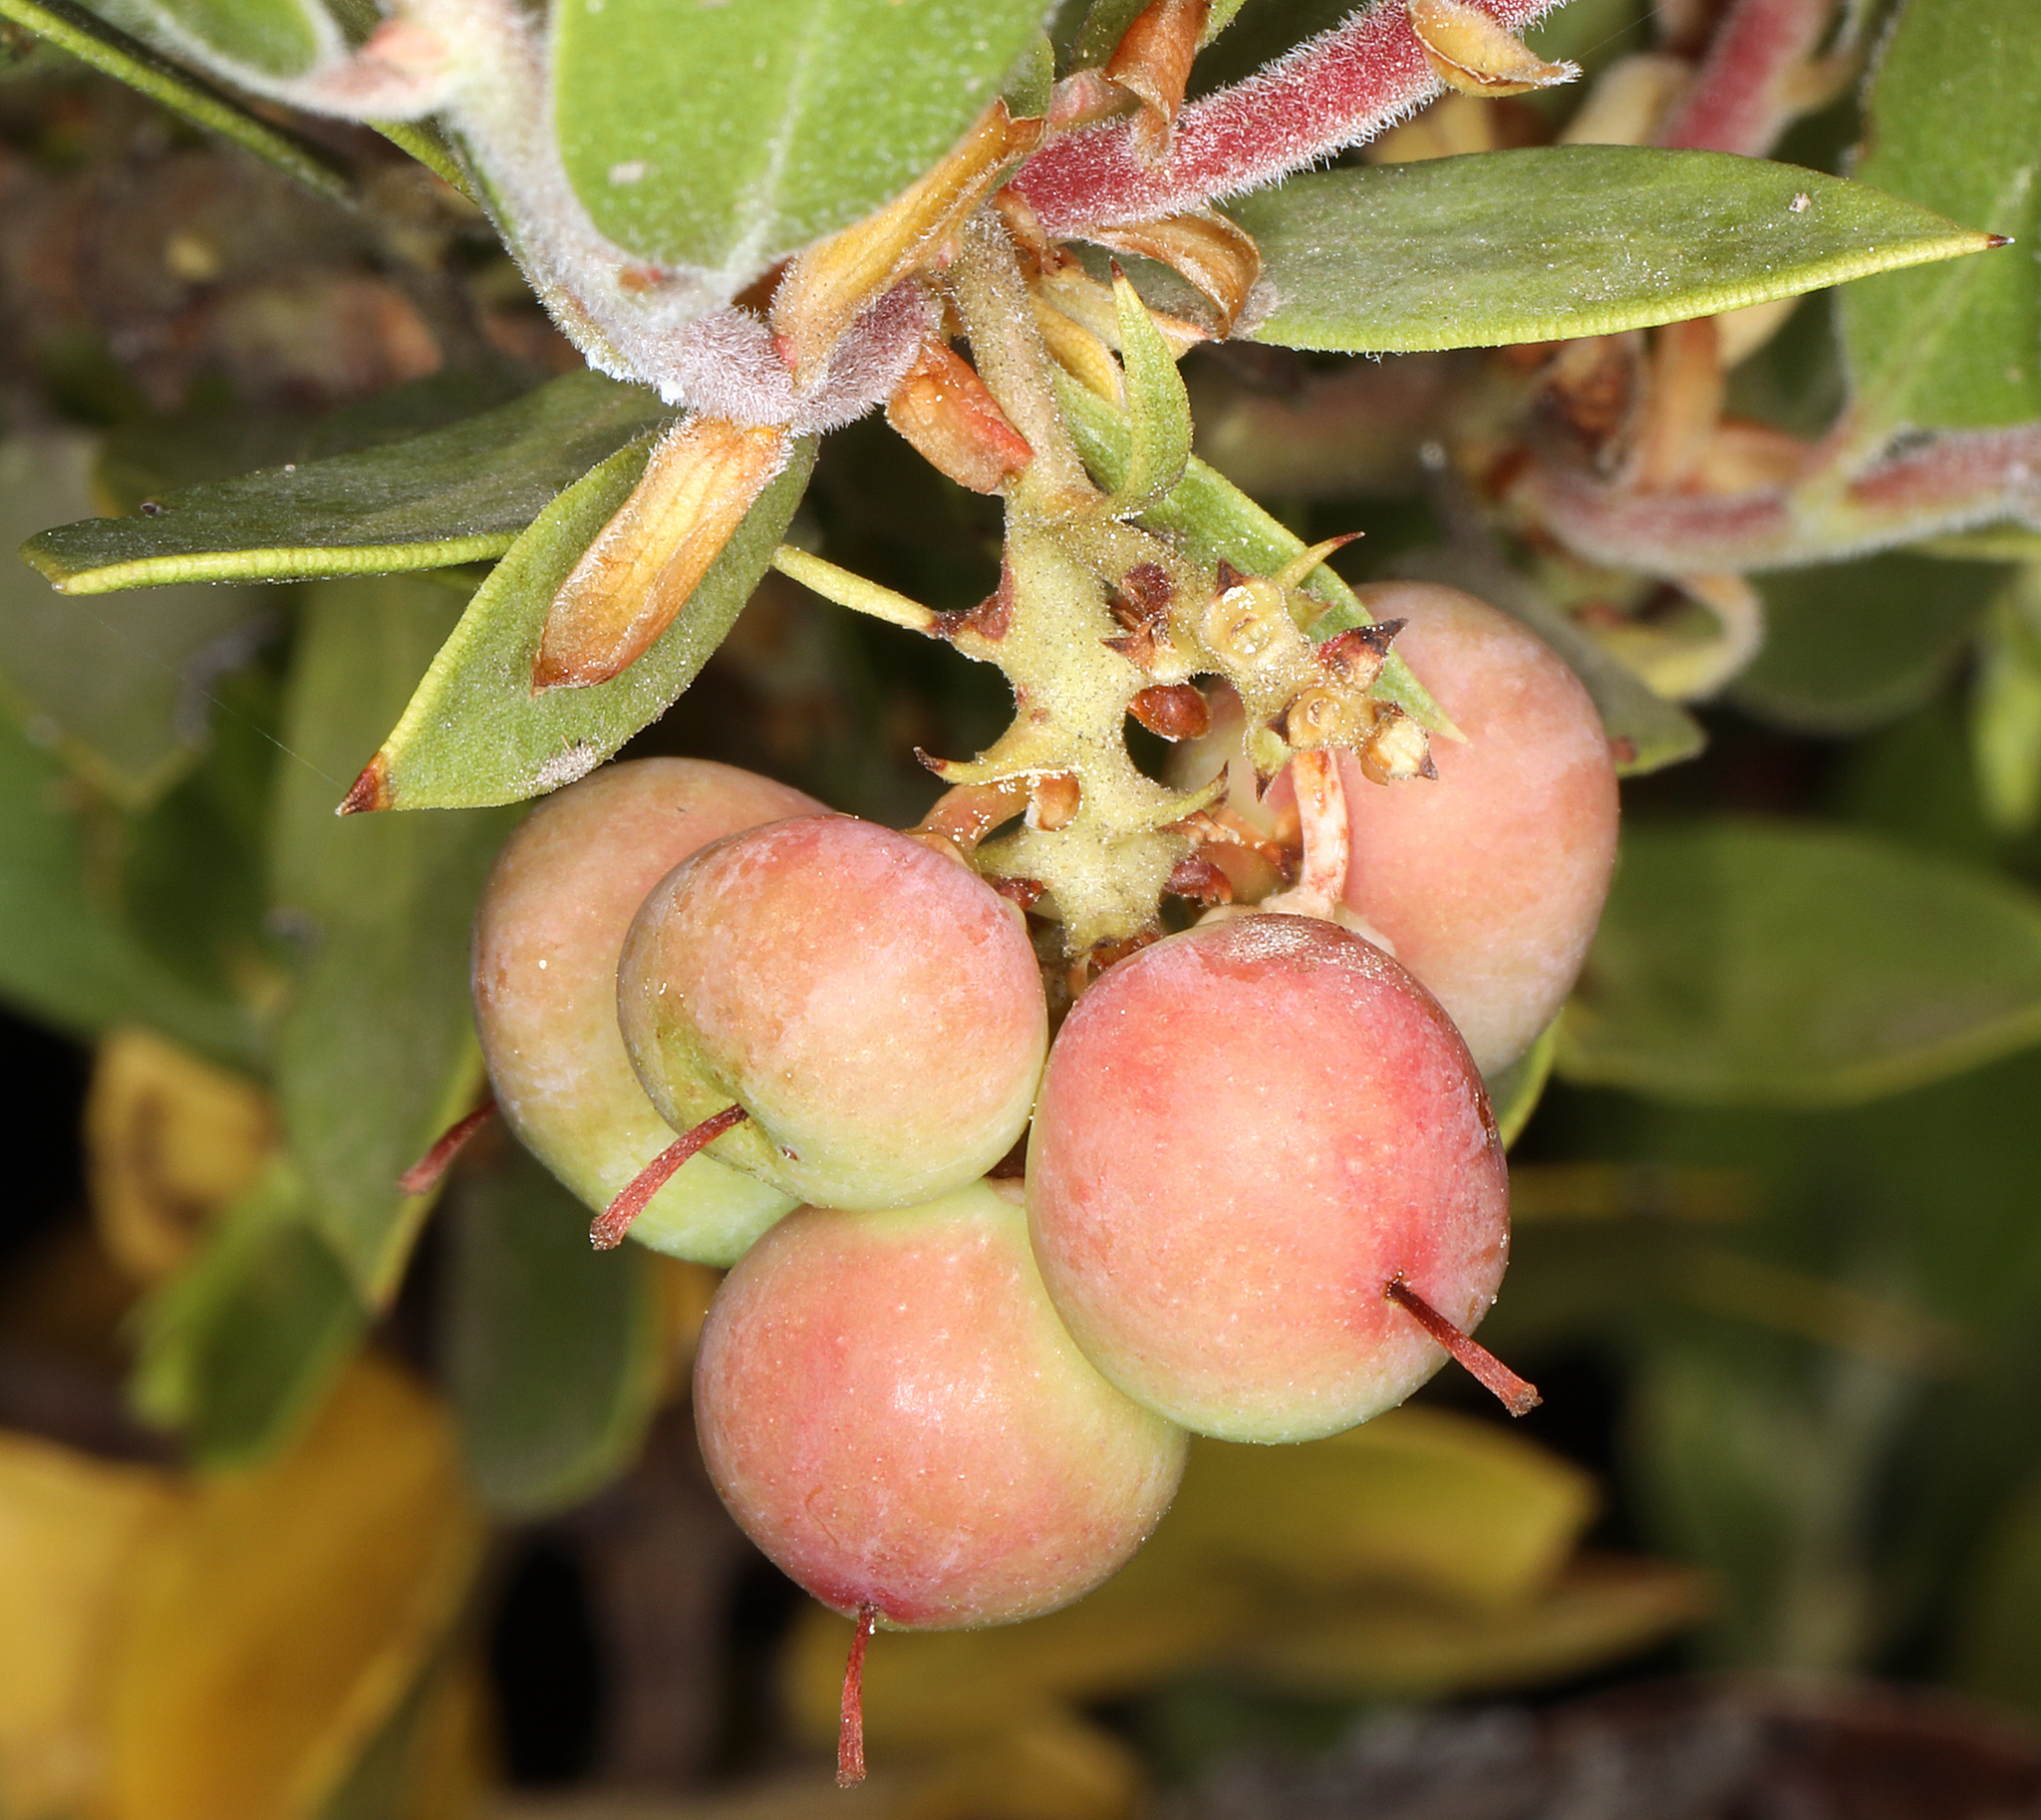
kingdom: Plantae
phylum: Tracheophyta
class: Magnoliopsida
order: Ericales
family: Ericaceae
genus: Arctostaphylos
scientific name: Arctostaphylos nevadensis
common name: Pinemat manzanita
